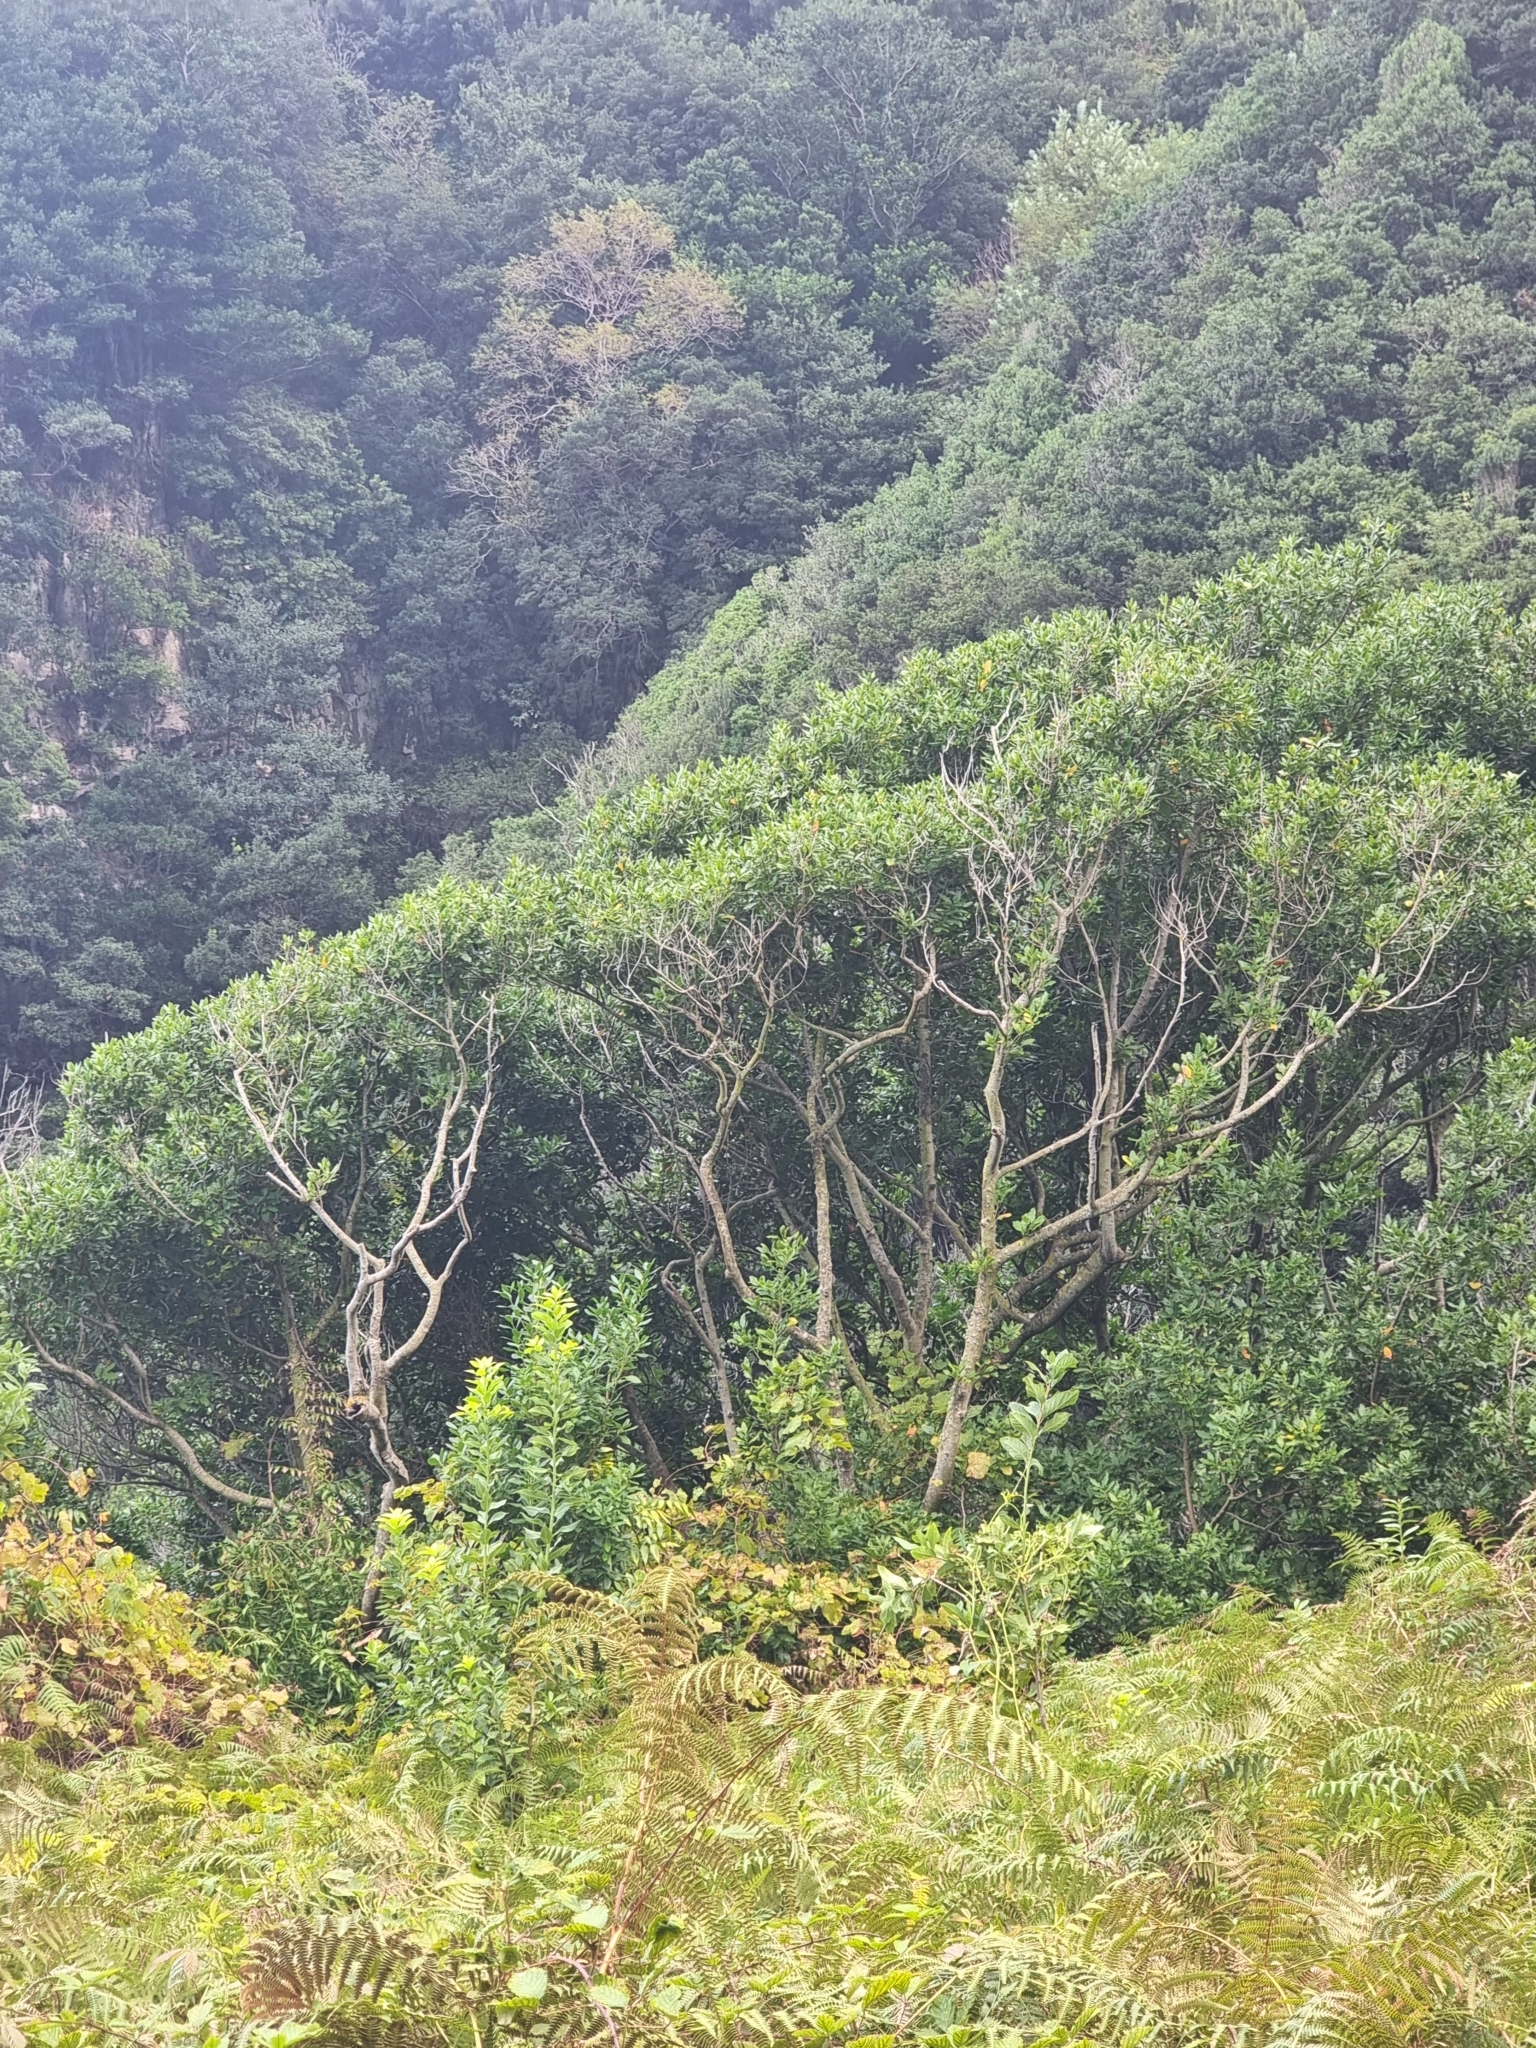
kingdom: Plantae
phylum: Tracheophyta
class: Magnoliopsida
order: Laurales
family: Lauraceae
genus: Mespilodaphne
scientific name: Mespilodaphne foetens
